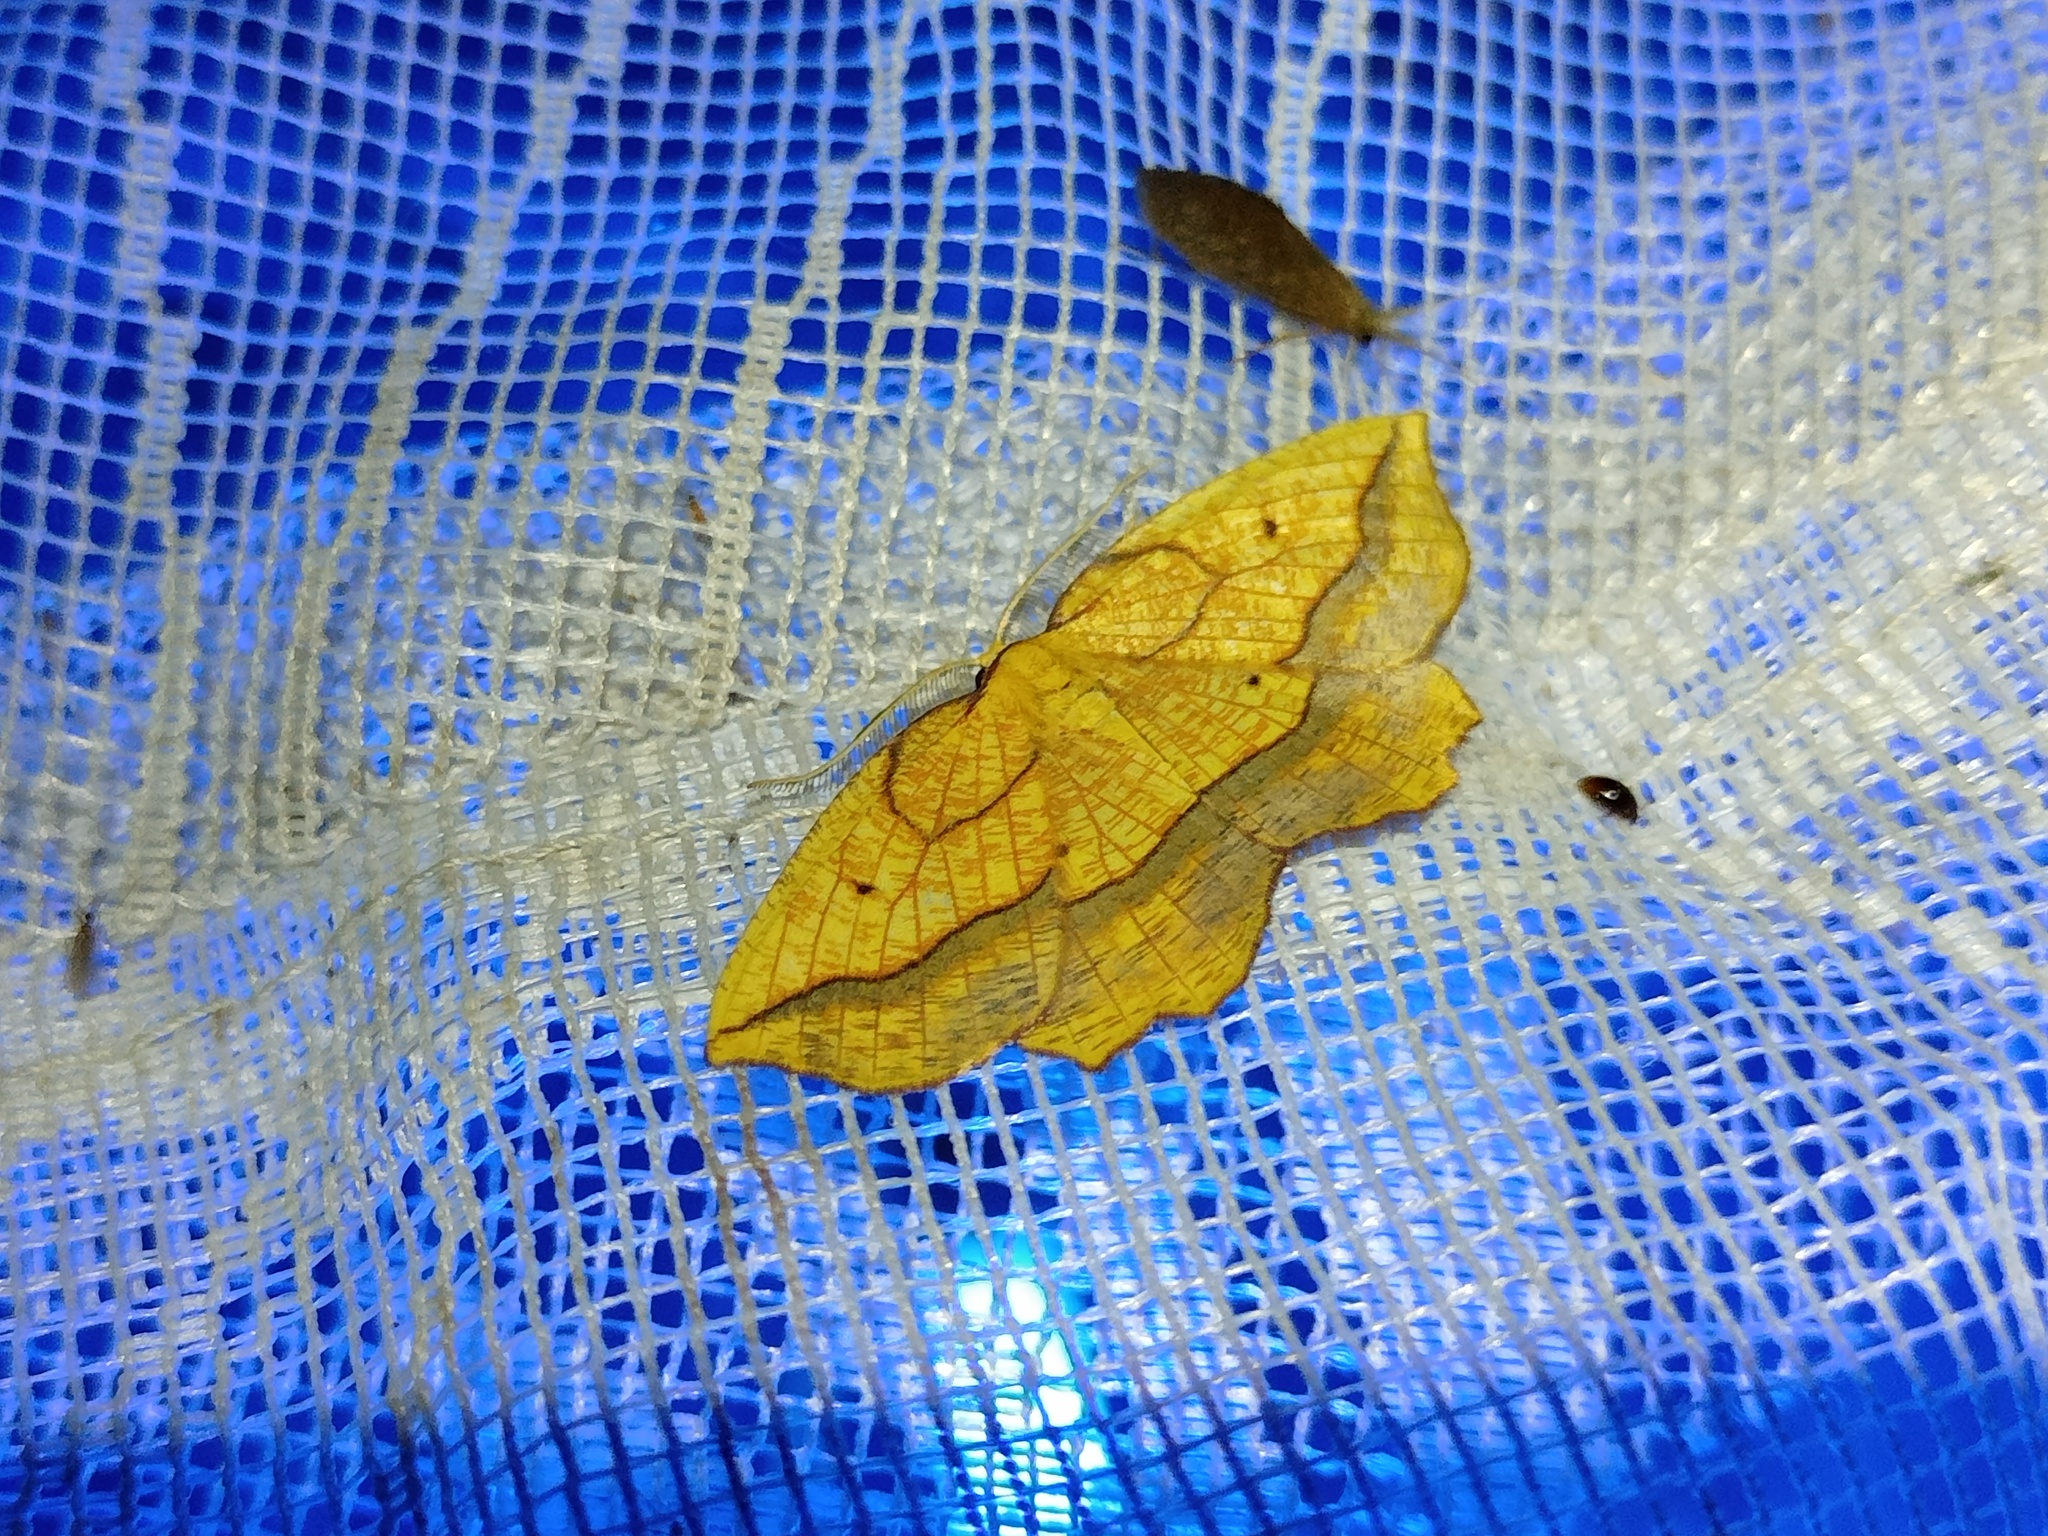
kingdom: Animalia
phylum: Arthropoda
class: Insecta
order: Lepidoptera
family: Geometridae
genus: Epione
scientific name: Epione repandaria
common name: Bordered beauty
